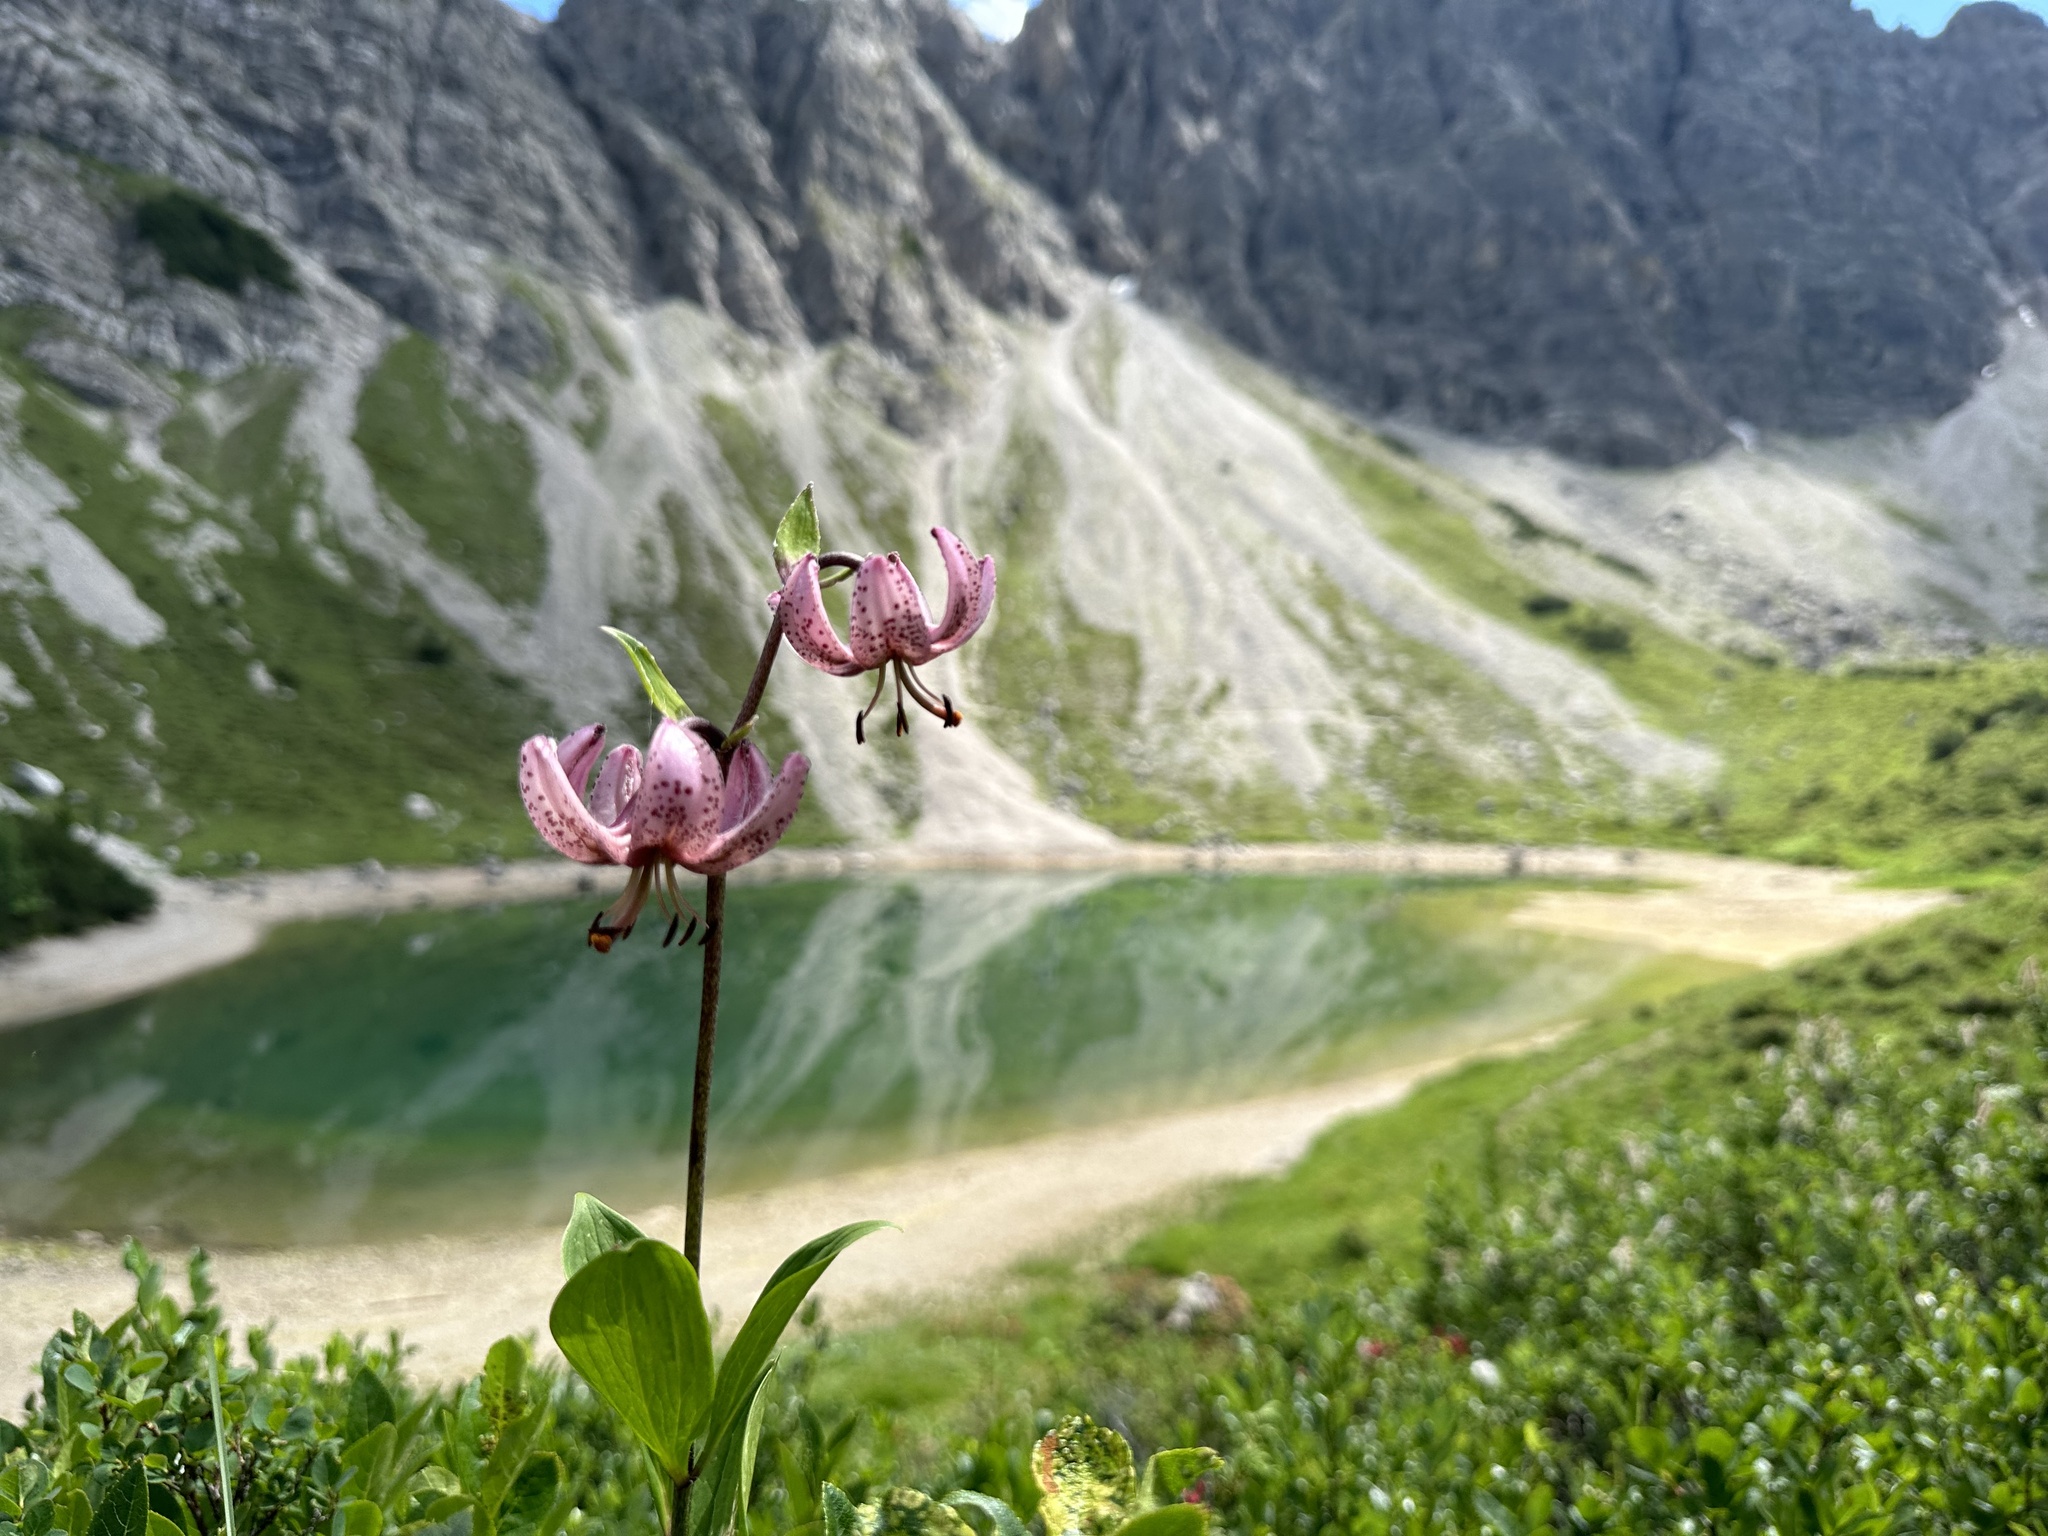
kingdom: Plantae
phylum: Tracheophyta
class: Liliopsida
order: Liliales
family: Liliaceae
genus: Lilium
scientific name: Lilium martagon
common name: Martagon lily
